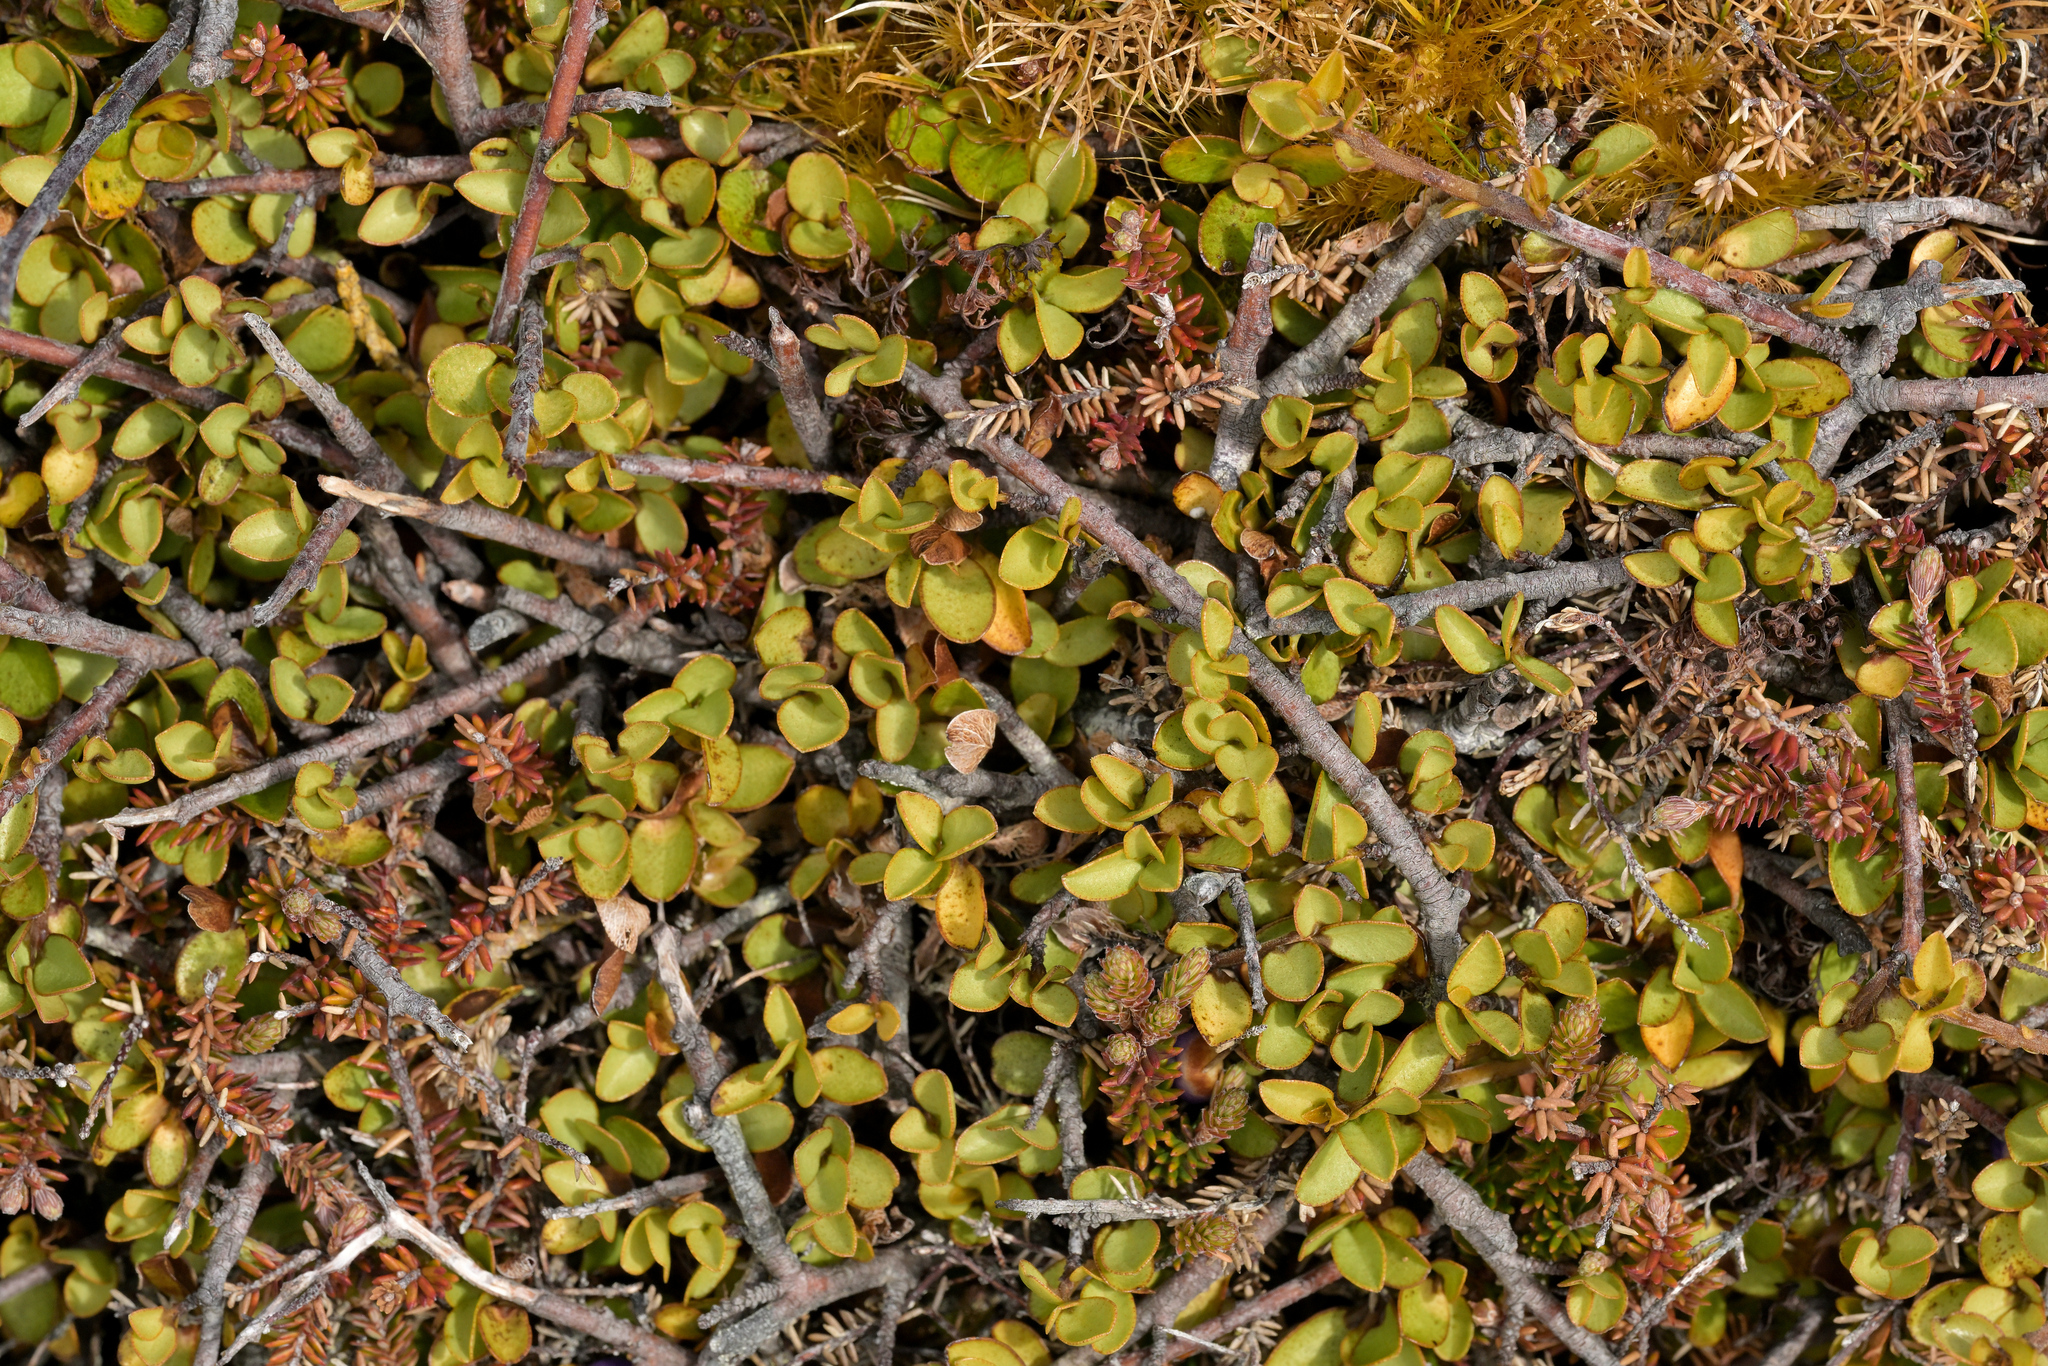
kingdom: Plantae
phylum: Tracheophyta
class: Magnoliopsida
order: Ericales
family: Primulaceae
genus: Myrsine
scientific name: Myrsine nummularia
